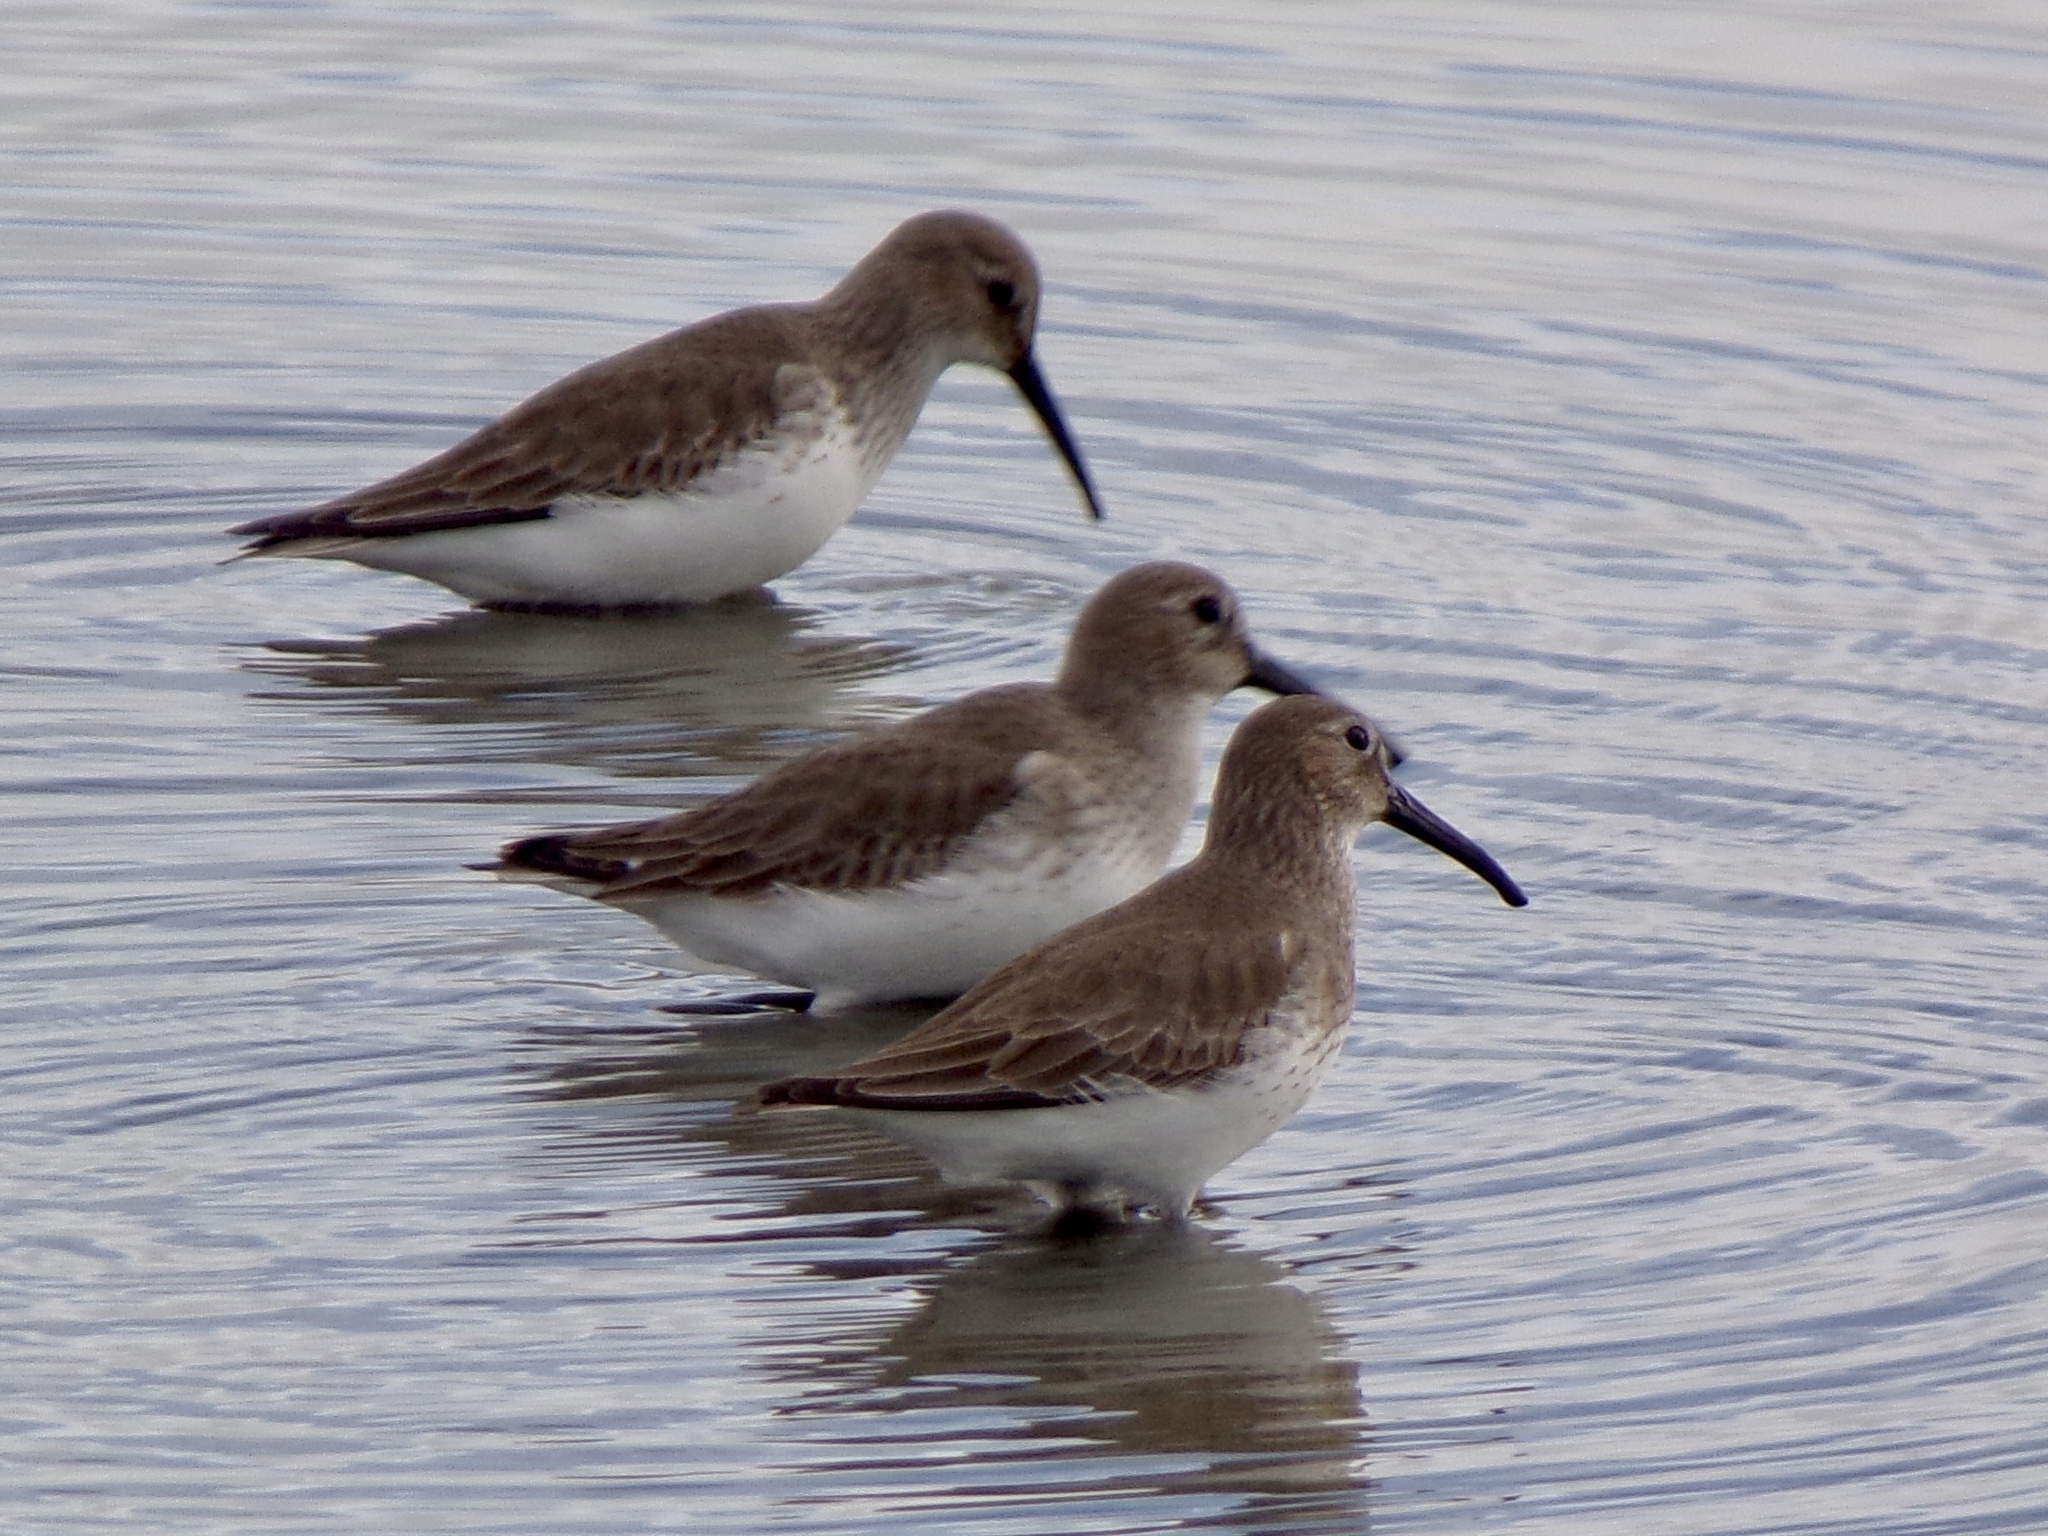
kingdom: Animalia
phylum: Chordata
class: Aves
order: Charadriiformes
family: Scolopacidae
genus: Calidris
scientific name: Calidris alpina
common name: Dunlin
